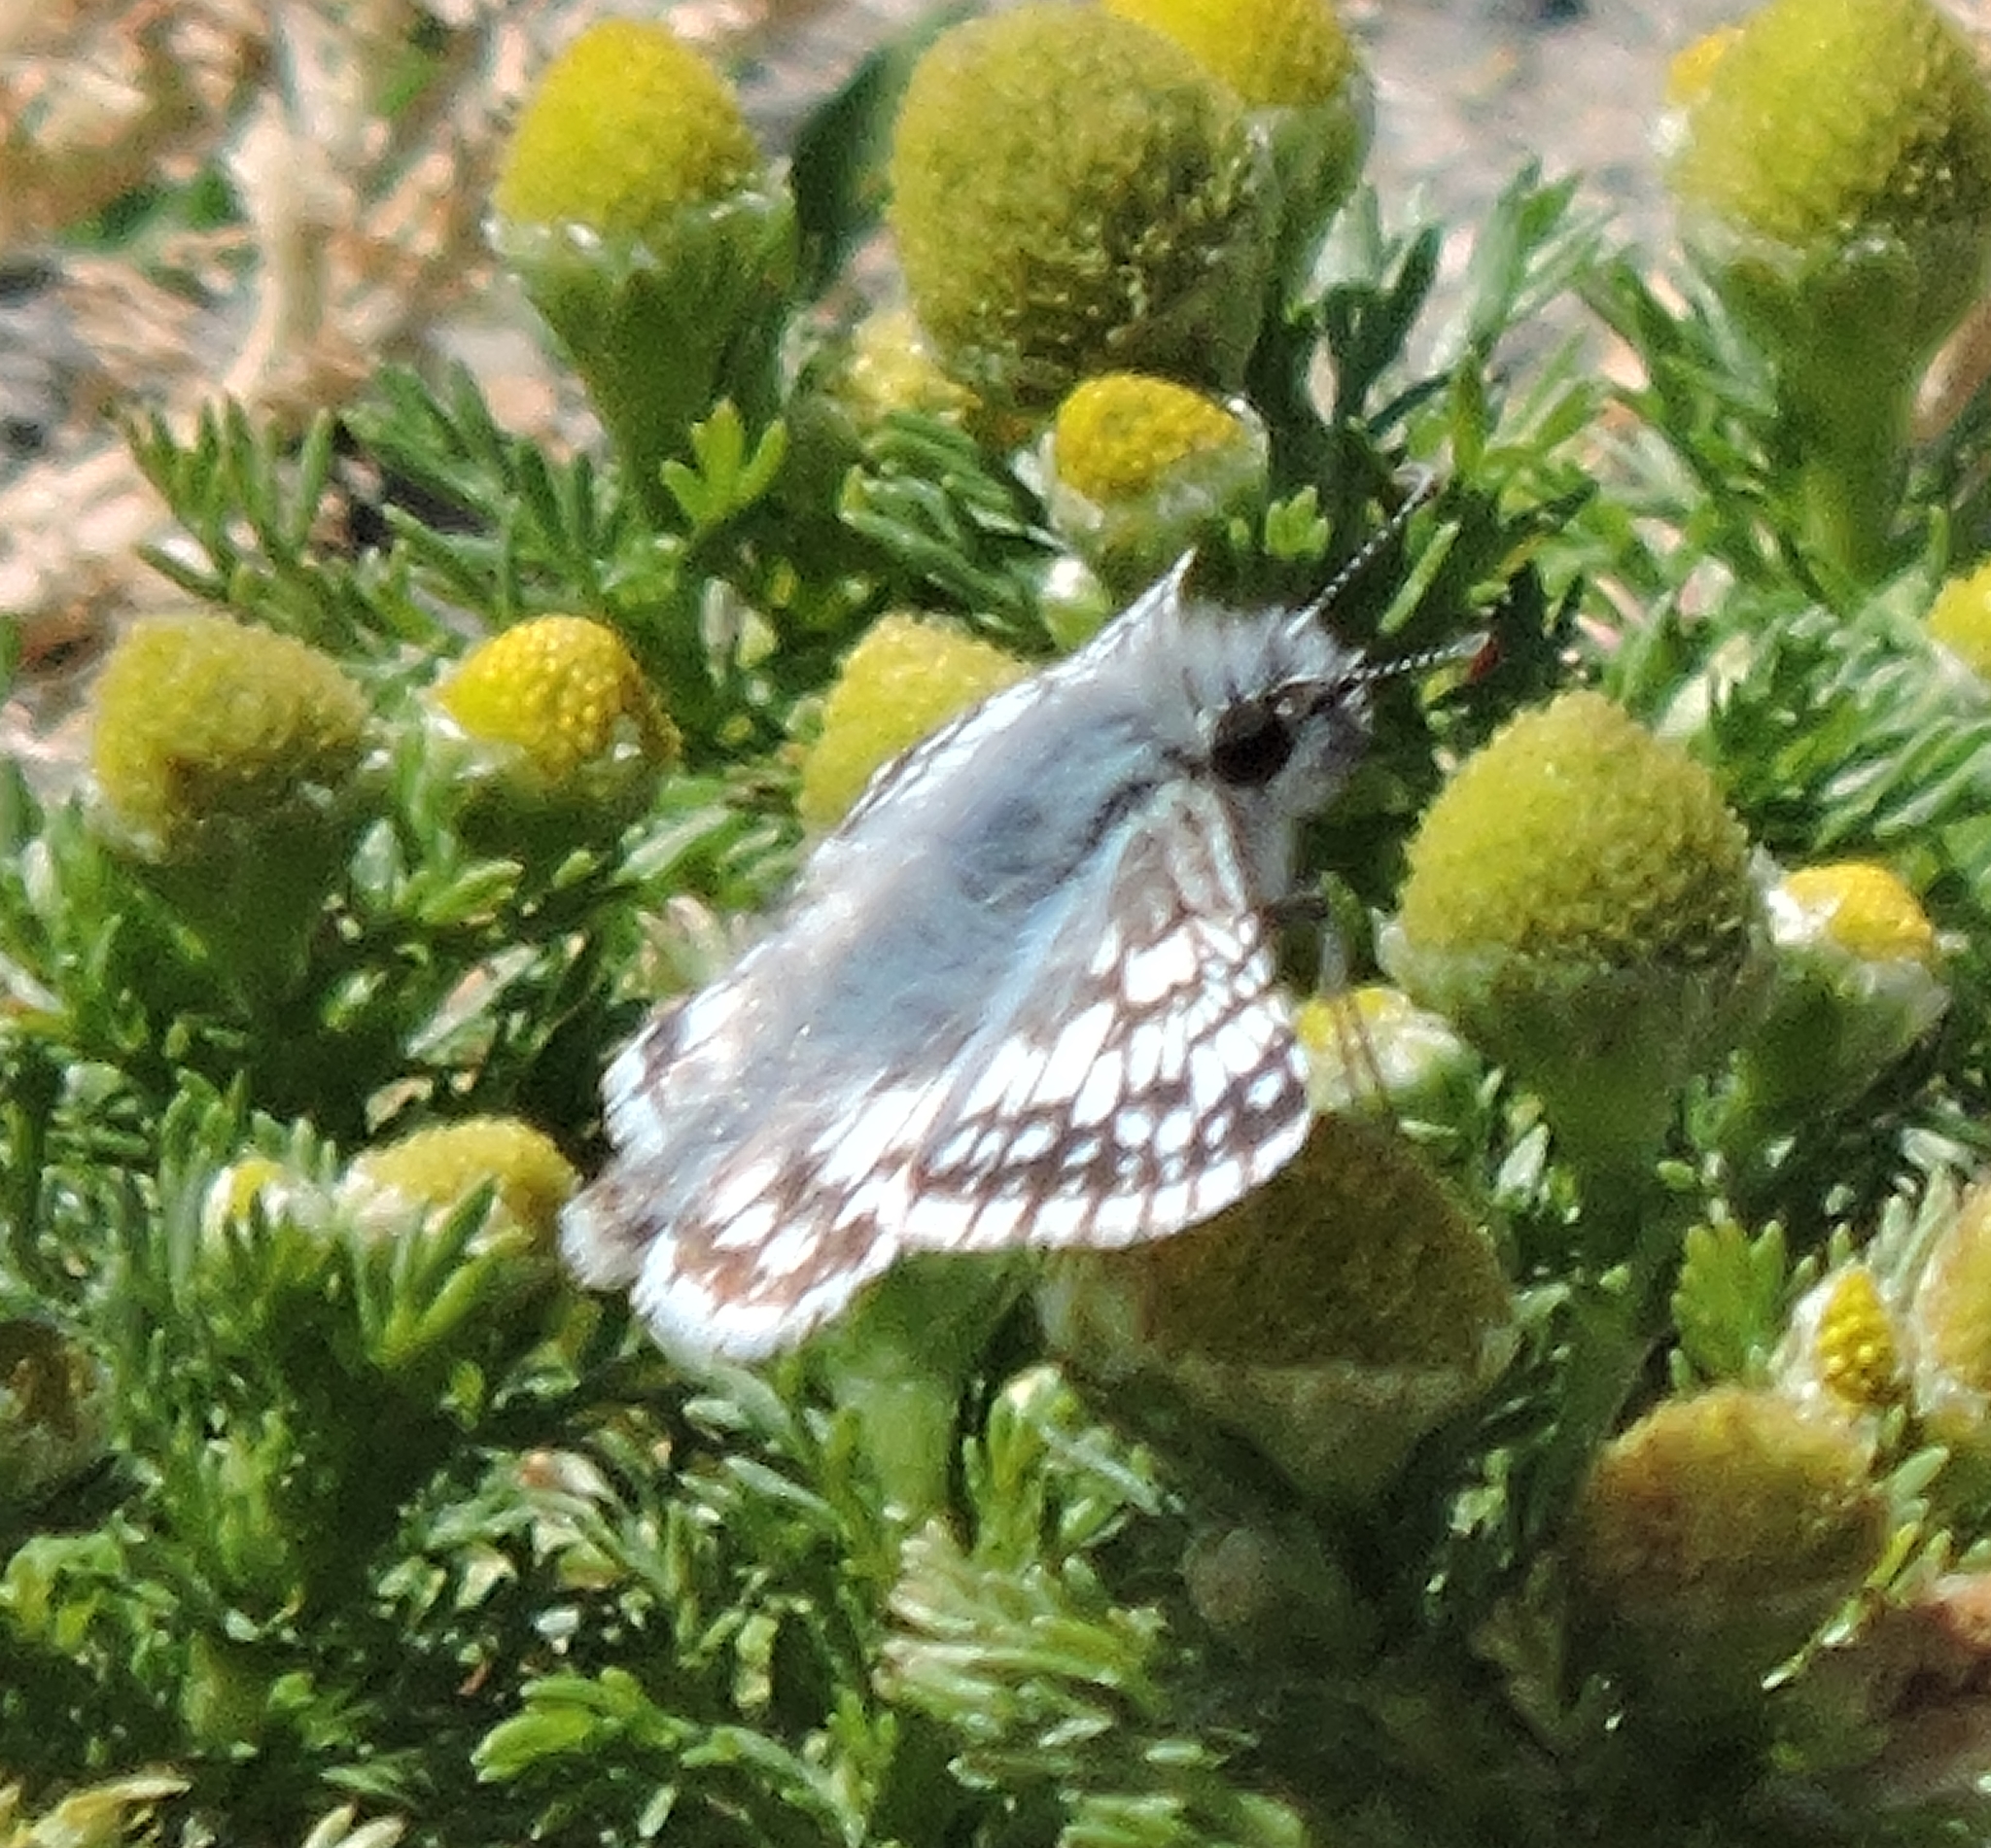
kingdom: Animalia
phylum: Arthropoda
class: Insecta
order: Lepidoptera
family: Hesperiidae
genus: Burnsius
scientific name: Burnsius communis
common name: Common checkered-skipper
